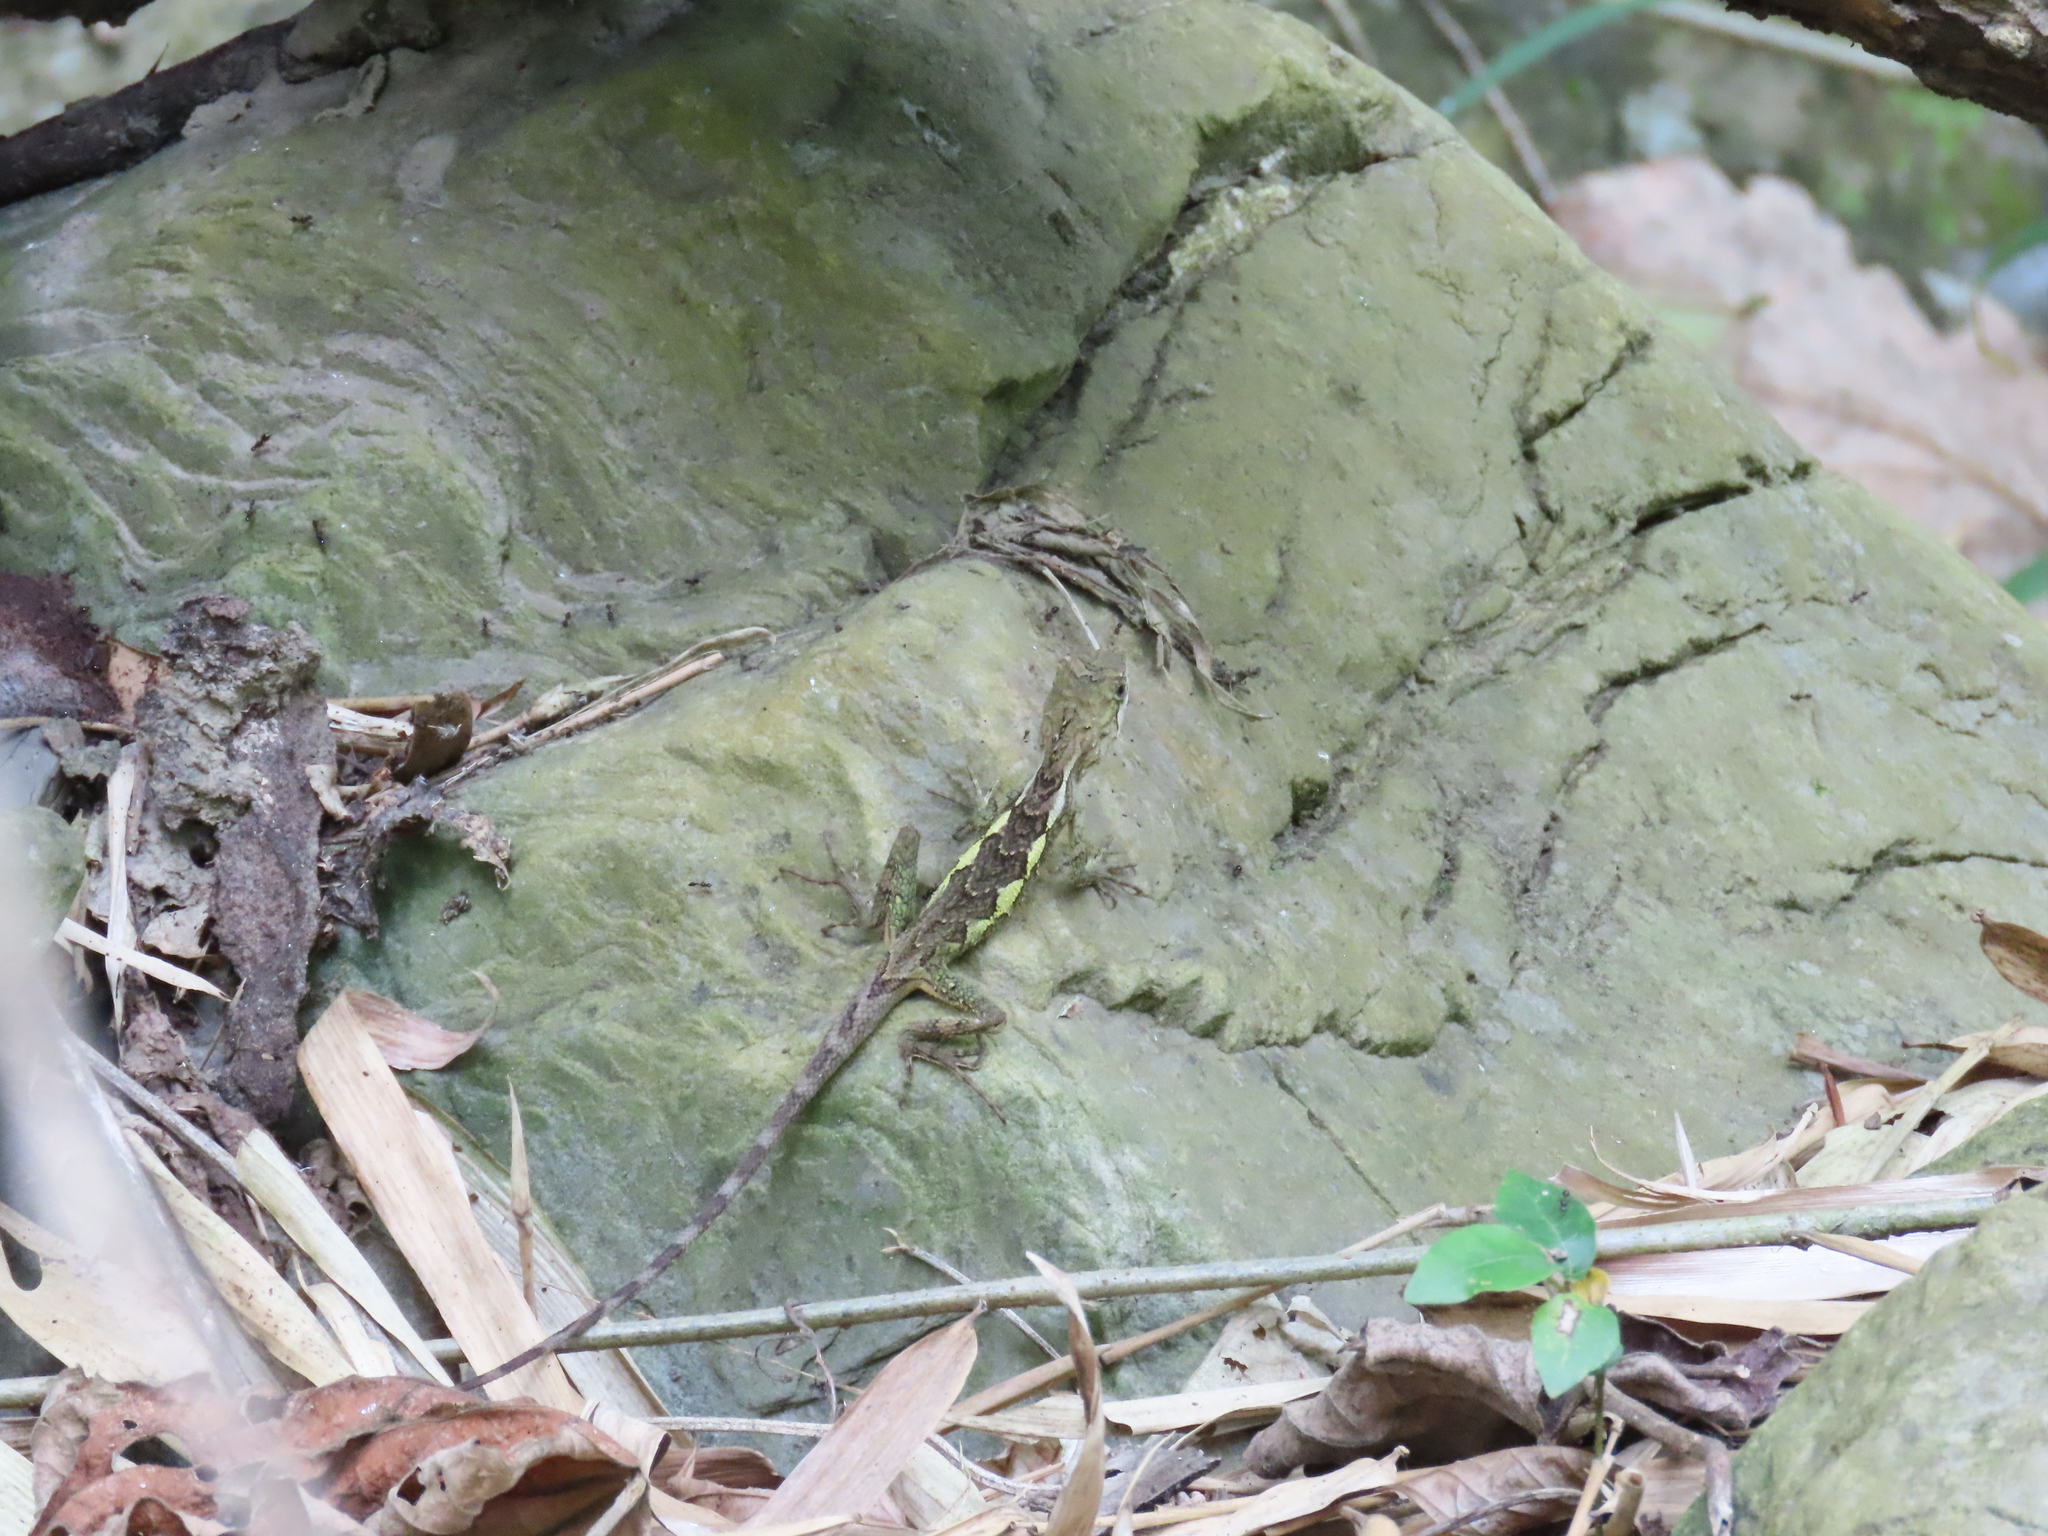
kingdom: Animalia
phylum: Chordata
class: Squamata
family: Agamidae
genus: Diploderma
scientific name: Diploderma swinhonis
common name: Taiwan japalure
